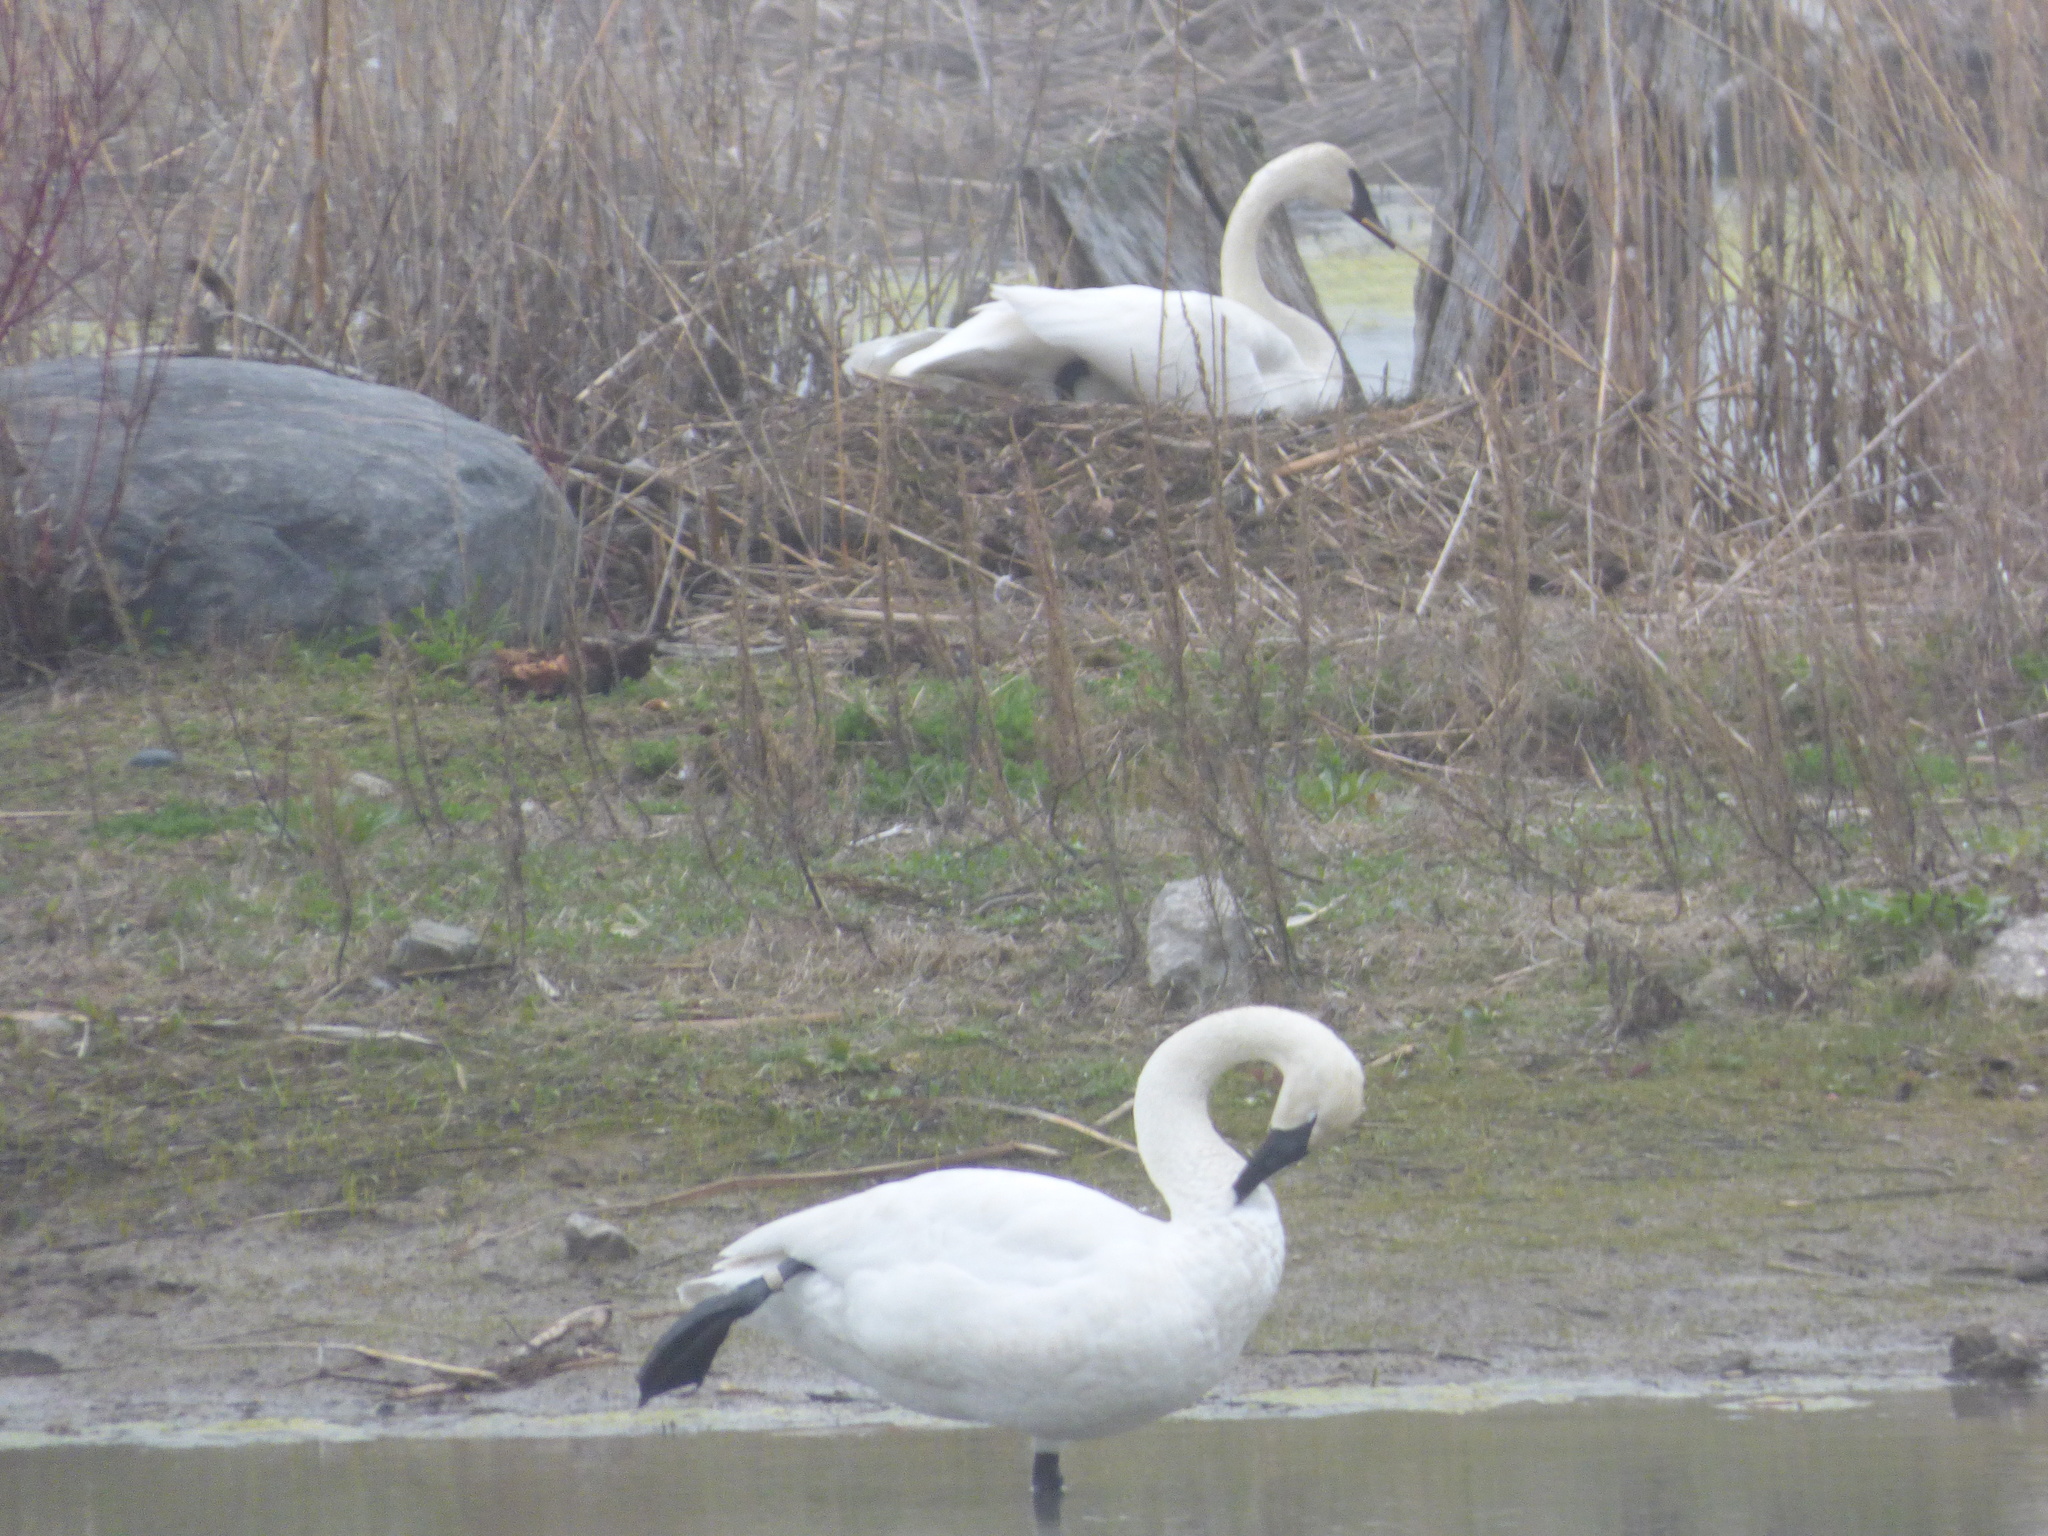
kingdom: Animalia
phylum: Chordata
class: Aves
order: Anseriformes
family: Anatidae
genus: Cygnus
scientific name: Cygnus buccinator
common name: Trumpeter swan
